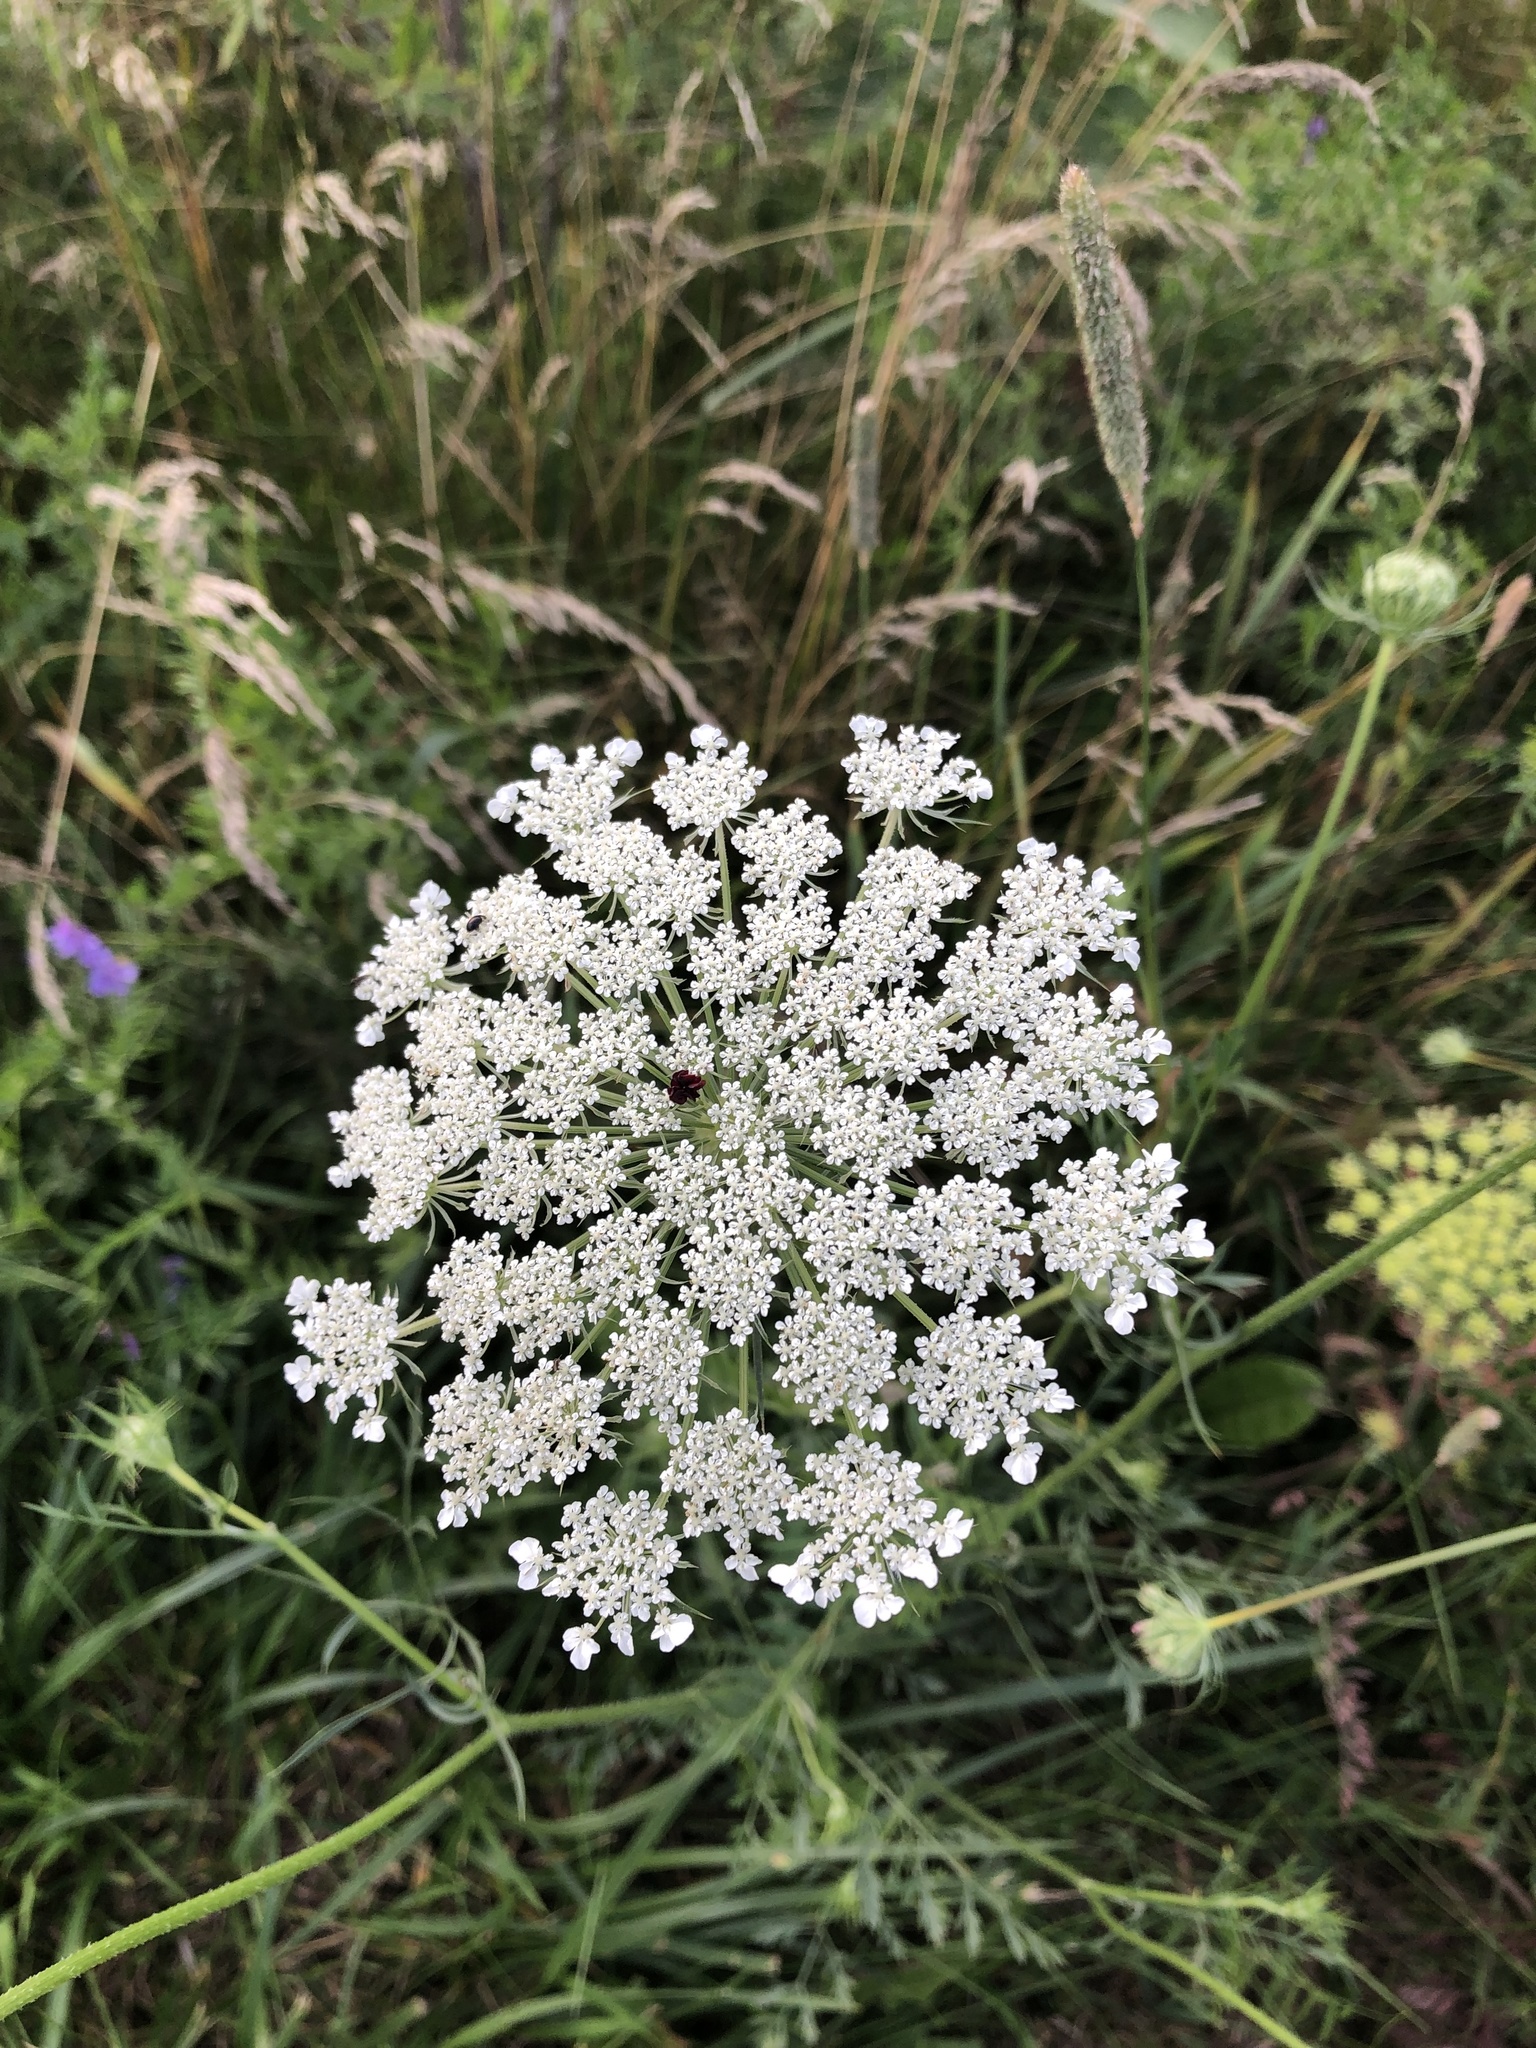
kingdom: Plantae
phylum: Tracheophyta
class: Magnoliopsida
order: Apiales
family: Apiaceae
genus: Daucus
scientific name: Daucus carota
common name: Wild carrot
